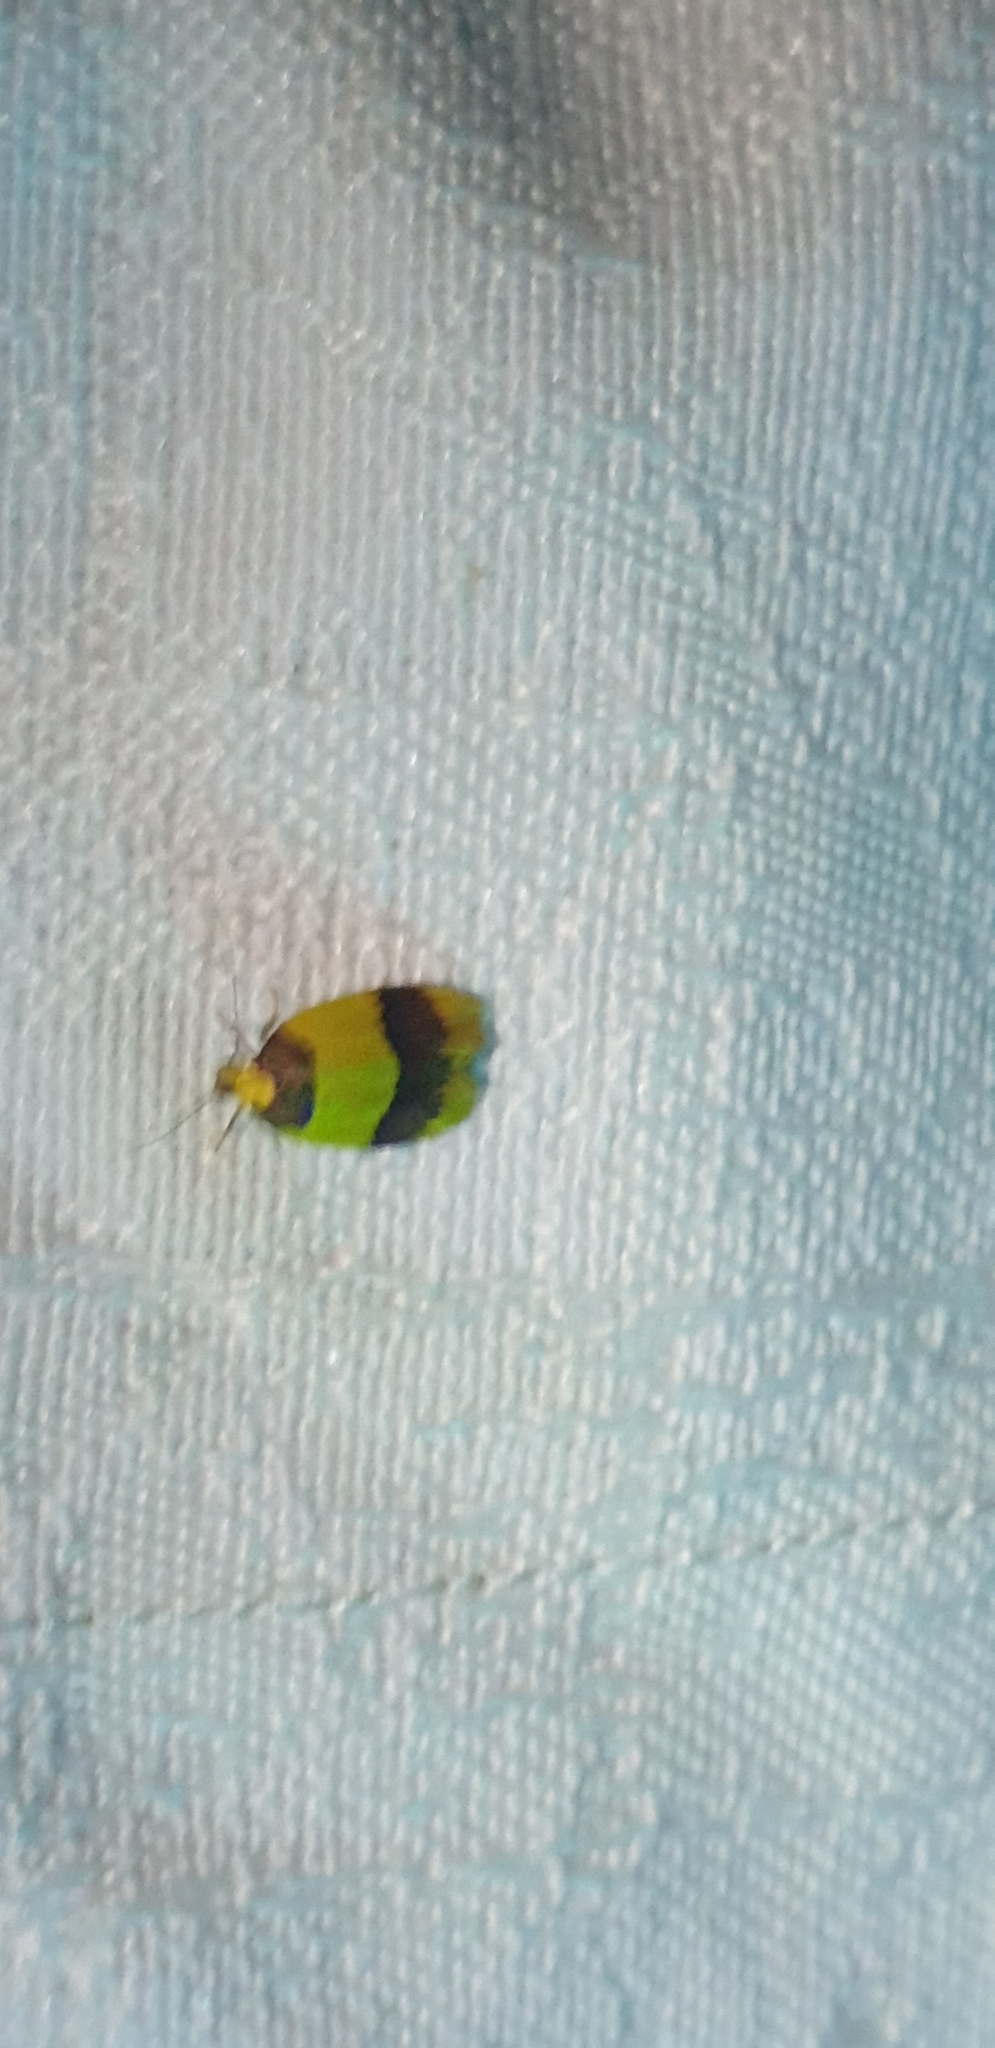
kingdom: Animalia
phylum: Arthropoda
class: Insecta
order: Lepidoptera
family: Erebidae
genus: Heterallactis
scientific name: Heterallactis euchrysa
